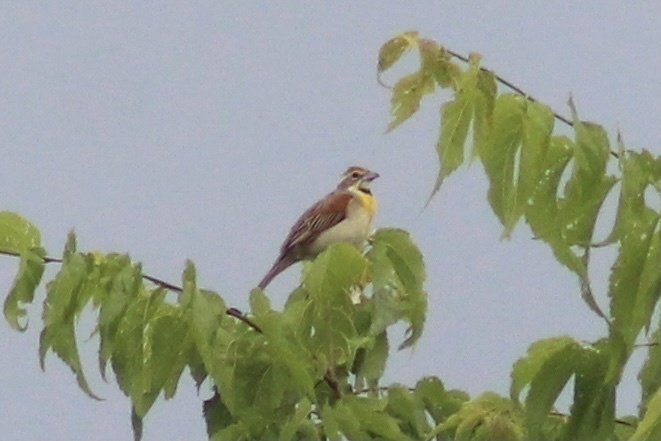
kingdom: Animalia
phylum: Chordata
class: Aves
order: Passeriformes
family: Cardinalidae
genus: Spiza
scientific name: Spiza americana
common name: Dickcissel
